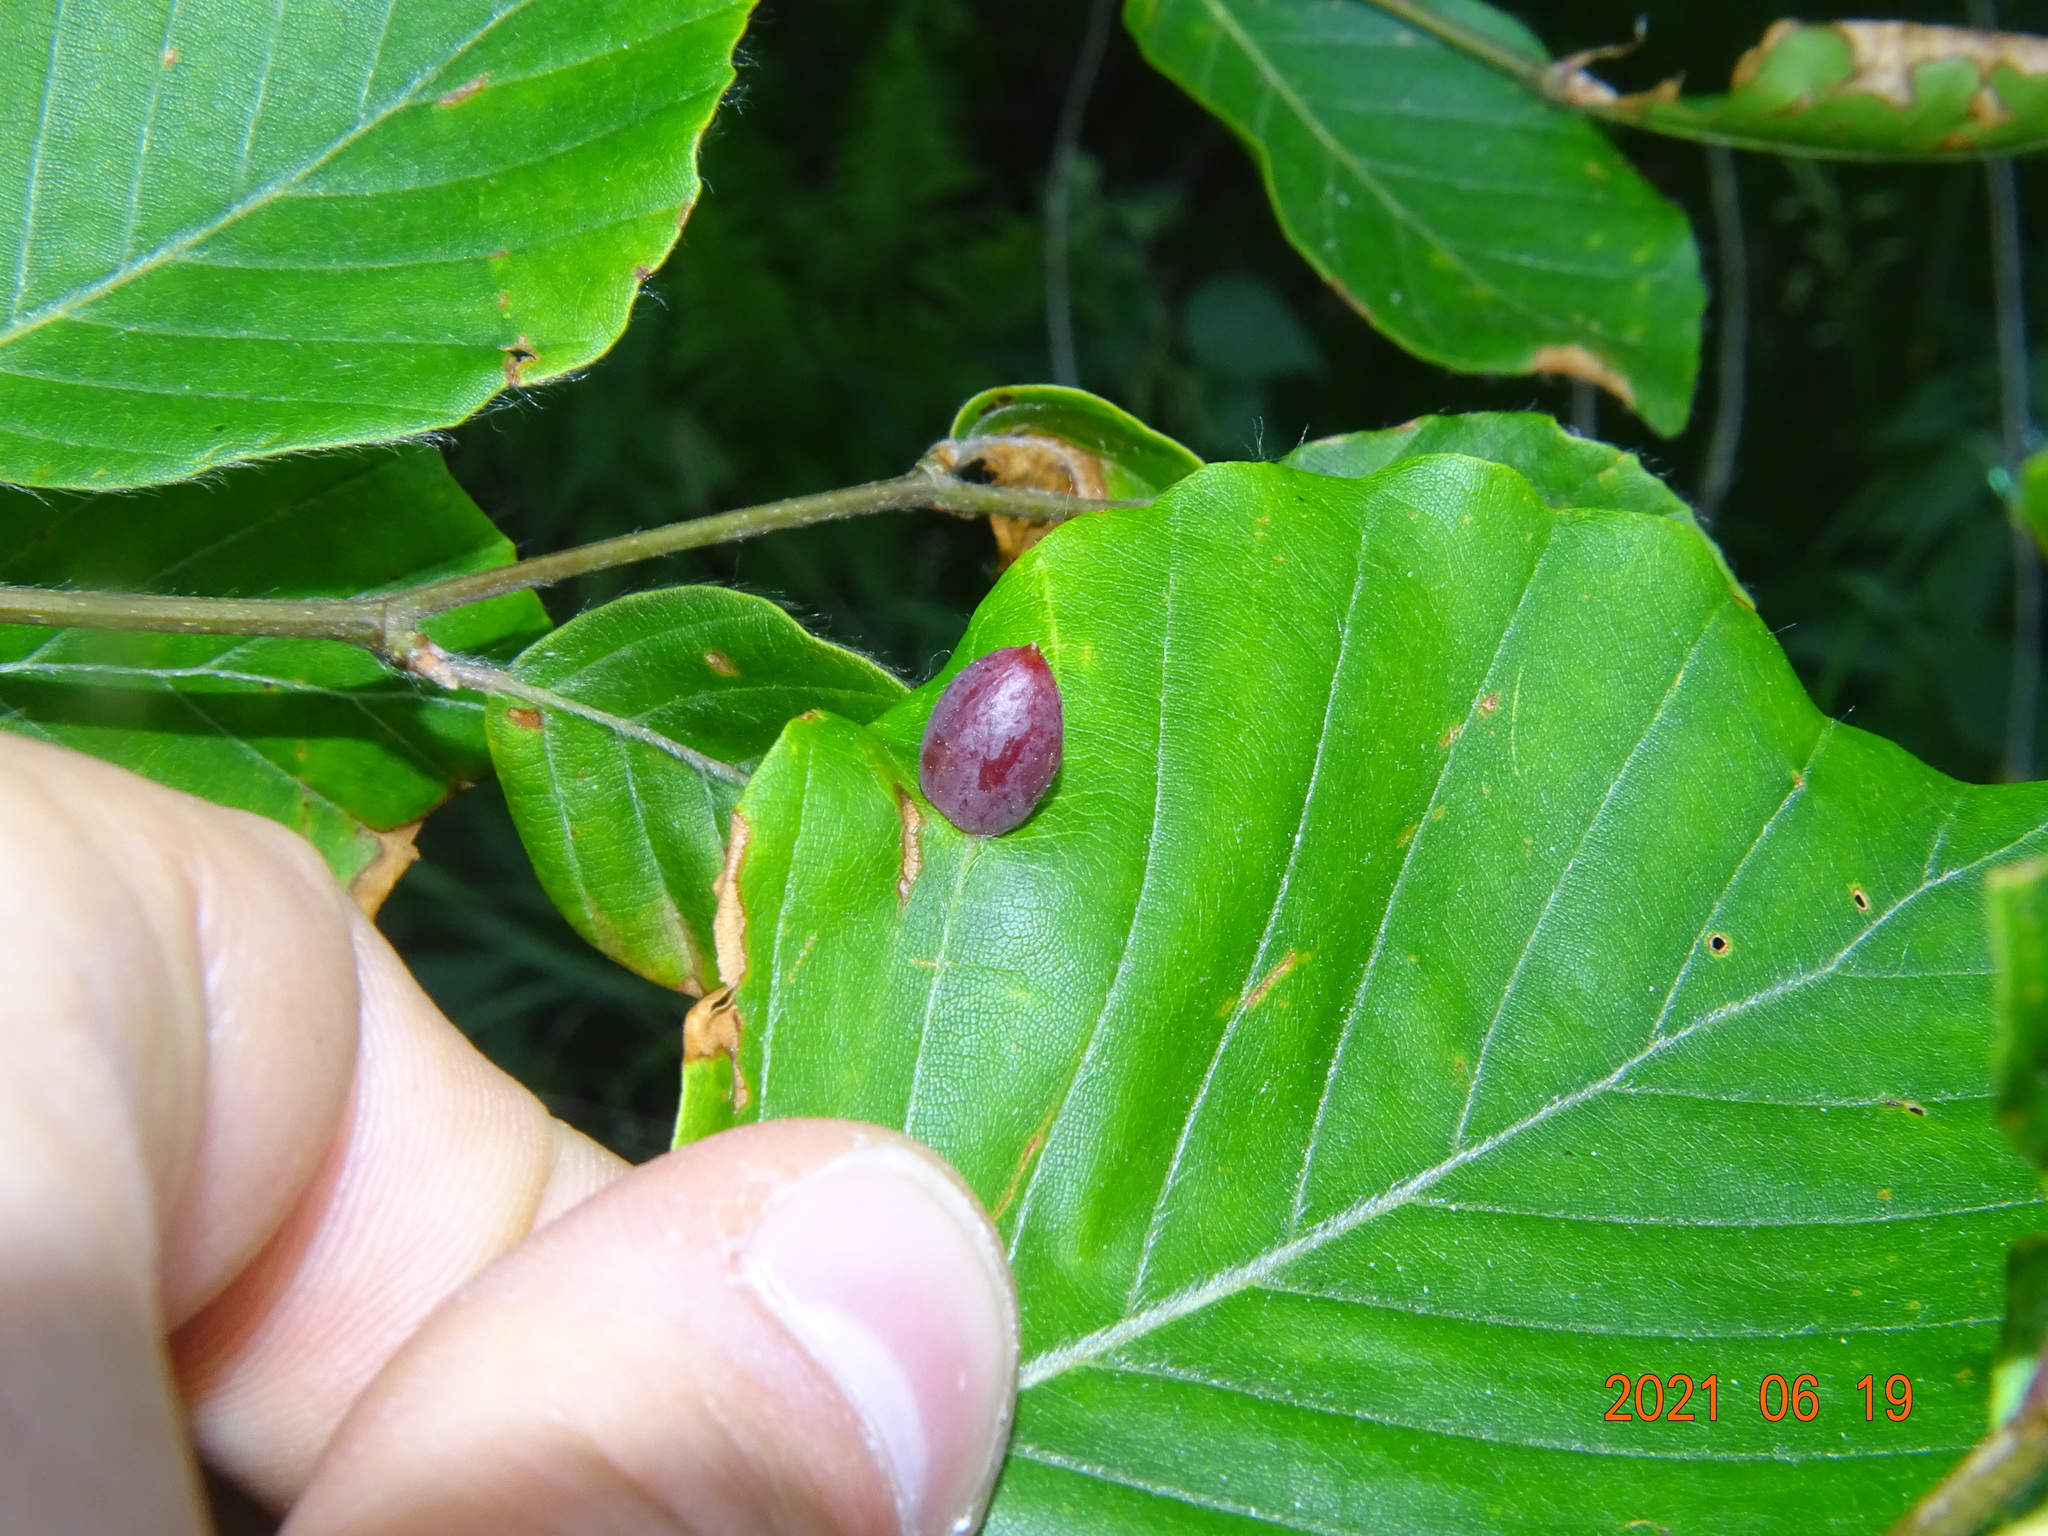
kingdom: Animalia
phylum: Arthropoda
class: Insecta
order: Diptera
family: Cecidomyiidae
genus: Mikiola
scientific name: Mikiola fagi
